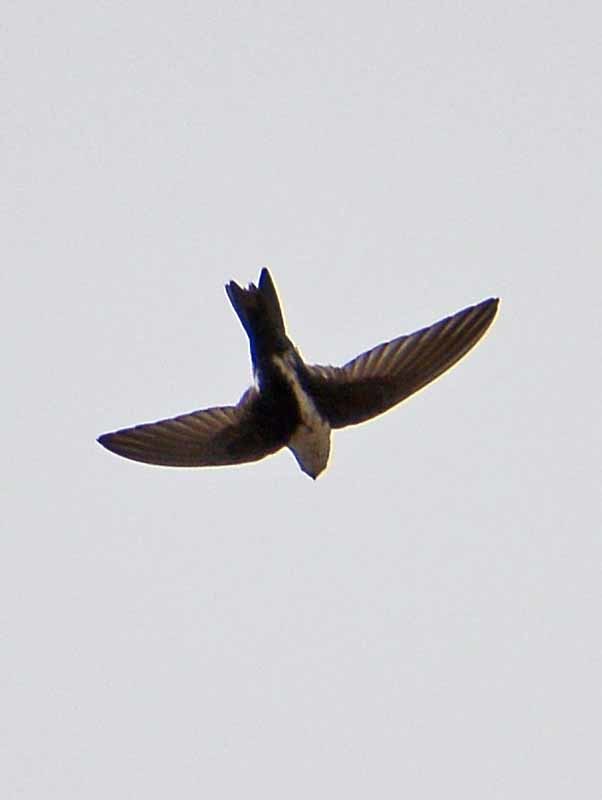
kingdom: Animalia
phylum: Chordata
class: Aves
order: Apodiformes
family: Apodidae
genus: Aeronautes
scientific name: Aeronautes saxatalis
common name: White-throated swift
